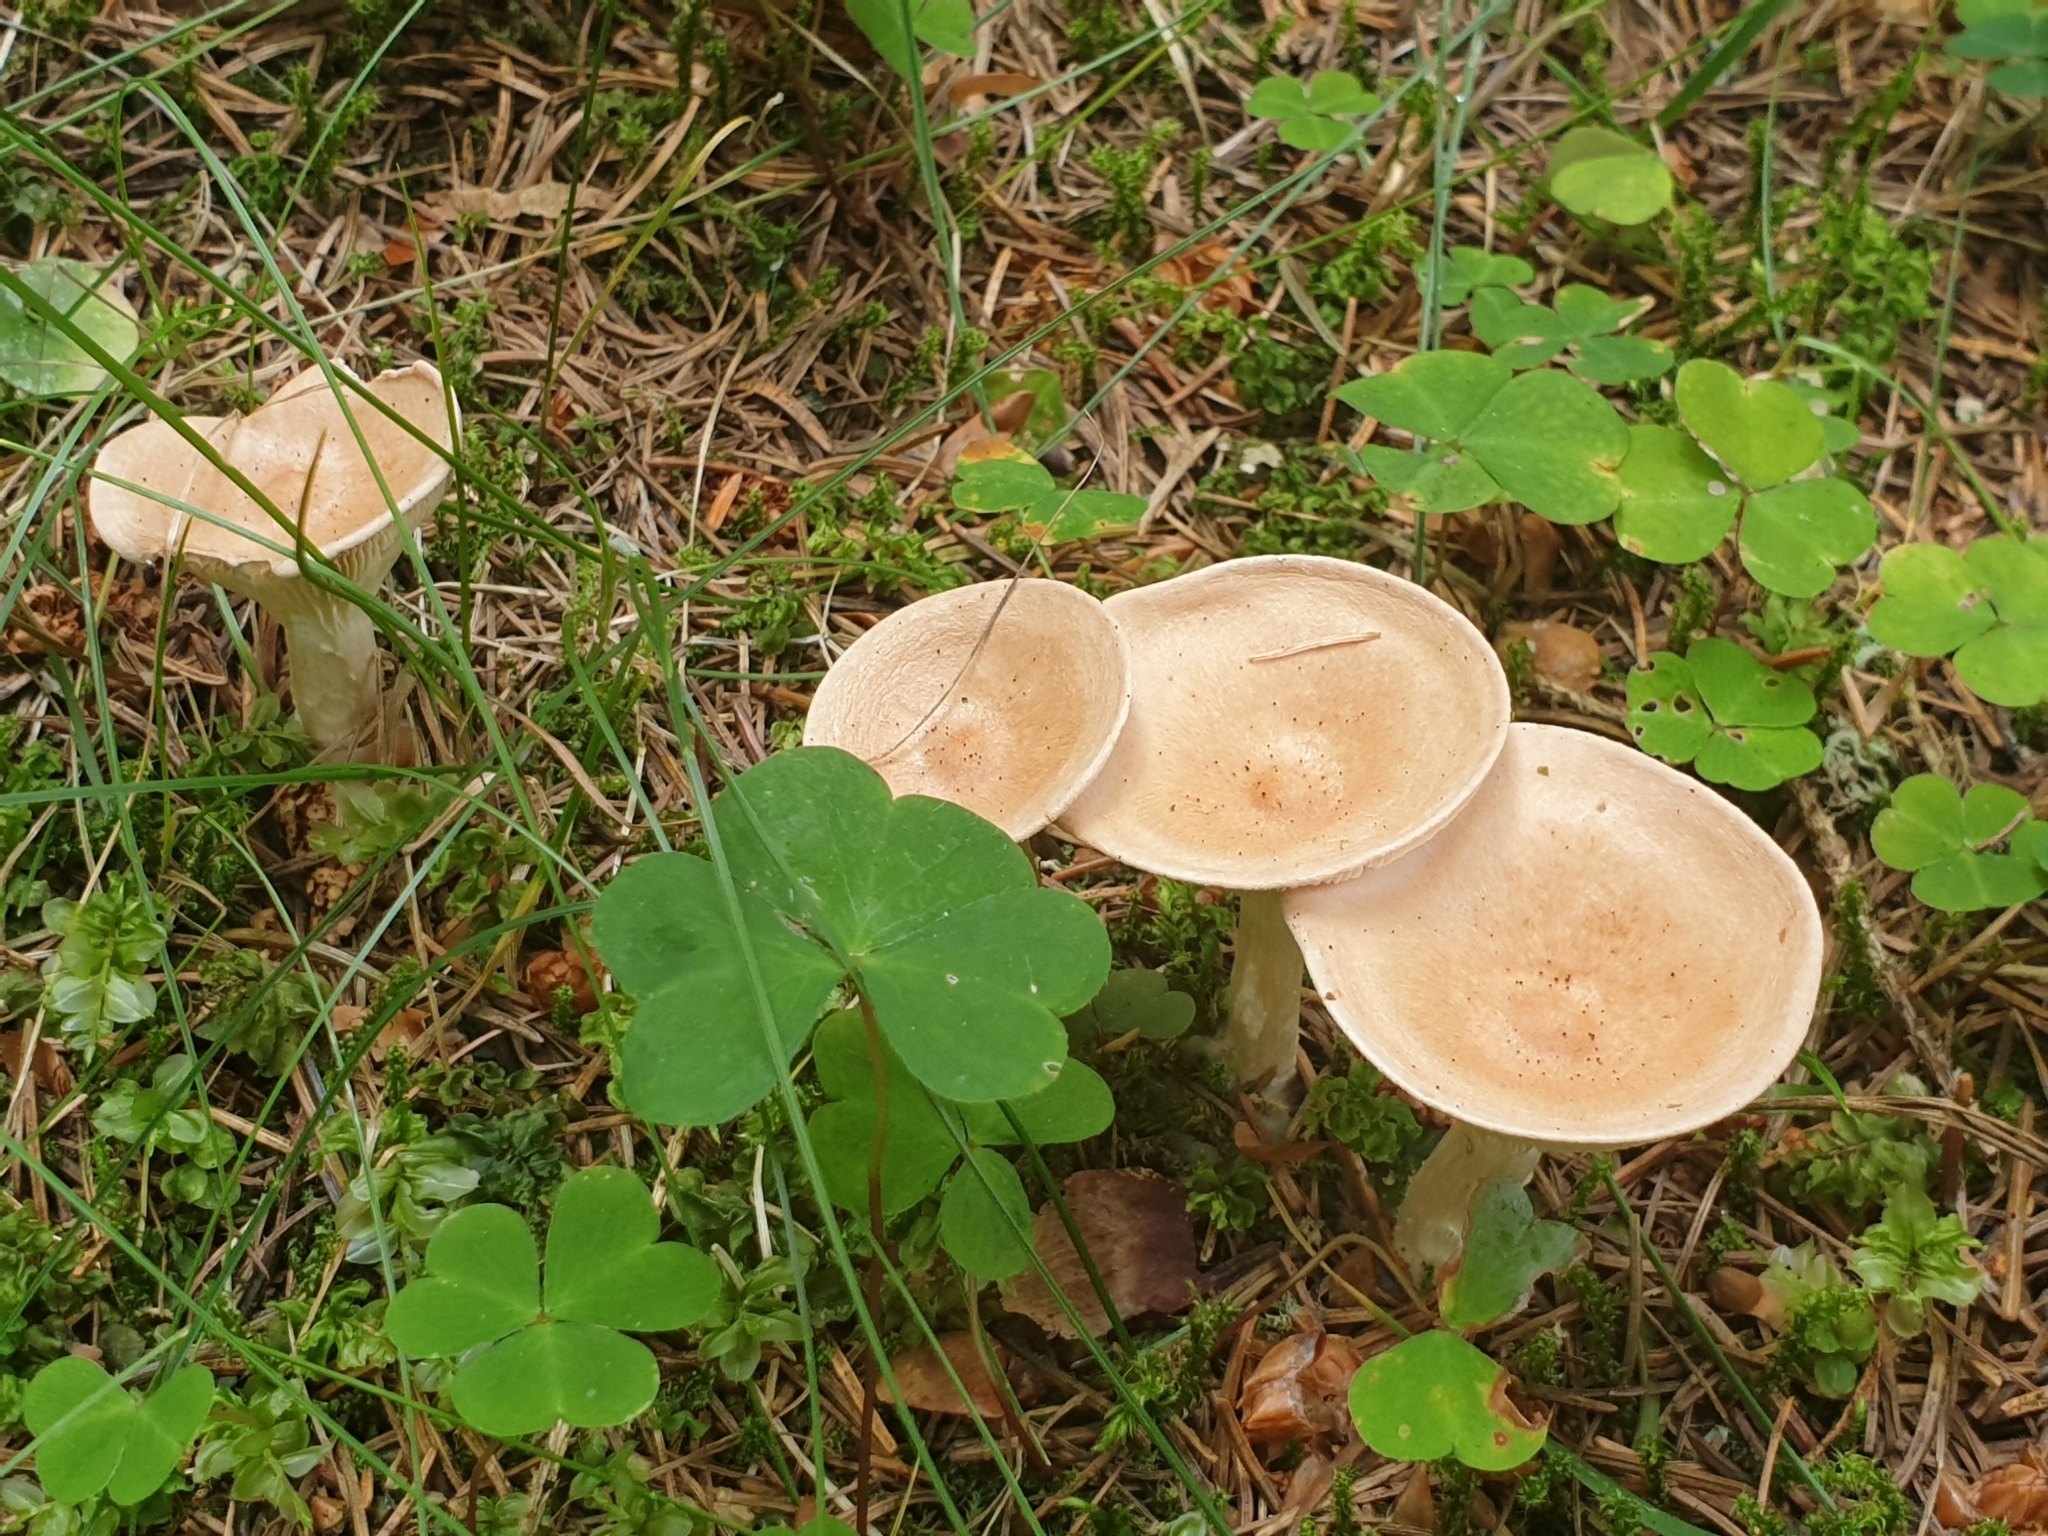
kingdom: Fungi
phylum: Basidiomycota
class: Agaricomycetes
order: Agaricales
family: Tricholomataceae
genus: Infundibulicybe
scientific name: Infundibulicybe gibba
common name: Common funnel
